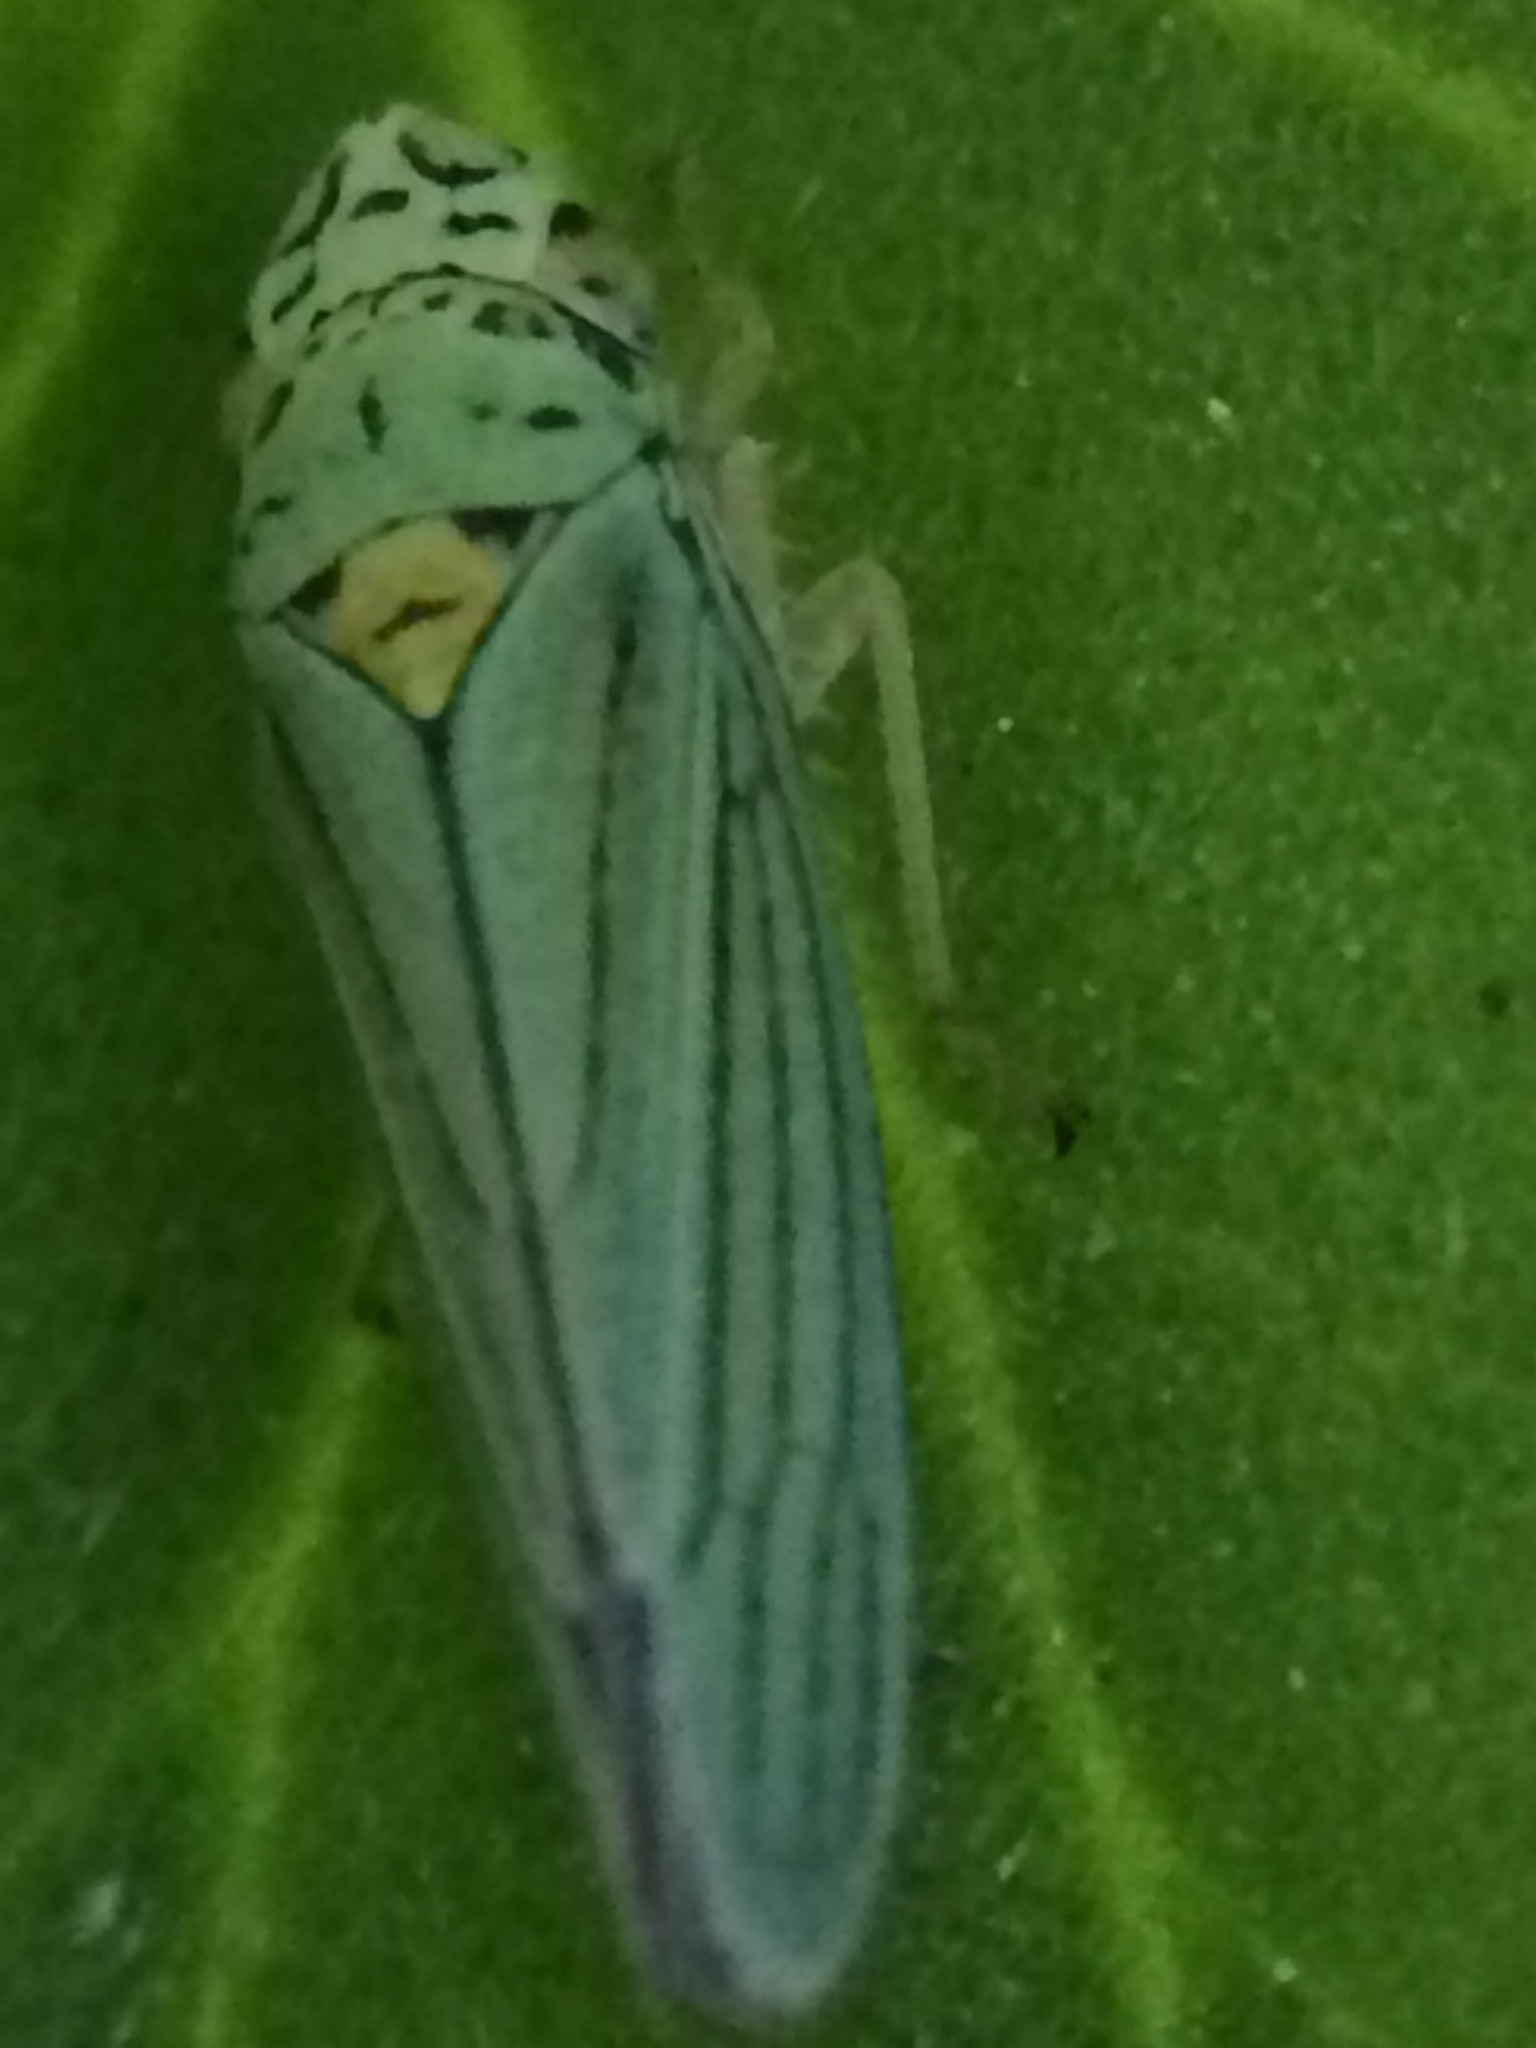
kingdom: Animalia
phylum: Arthropoda
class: Insecta
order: Hemiptera
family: Cicadellidae
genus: Graphocephala
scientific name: Graphocephala atropunctata
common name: Blue-green sharpshooter
